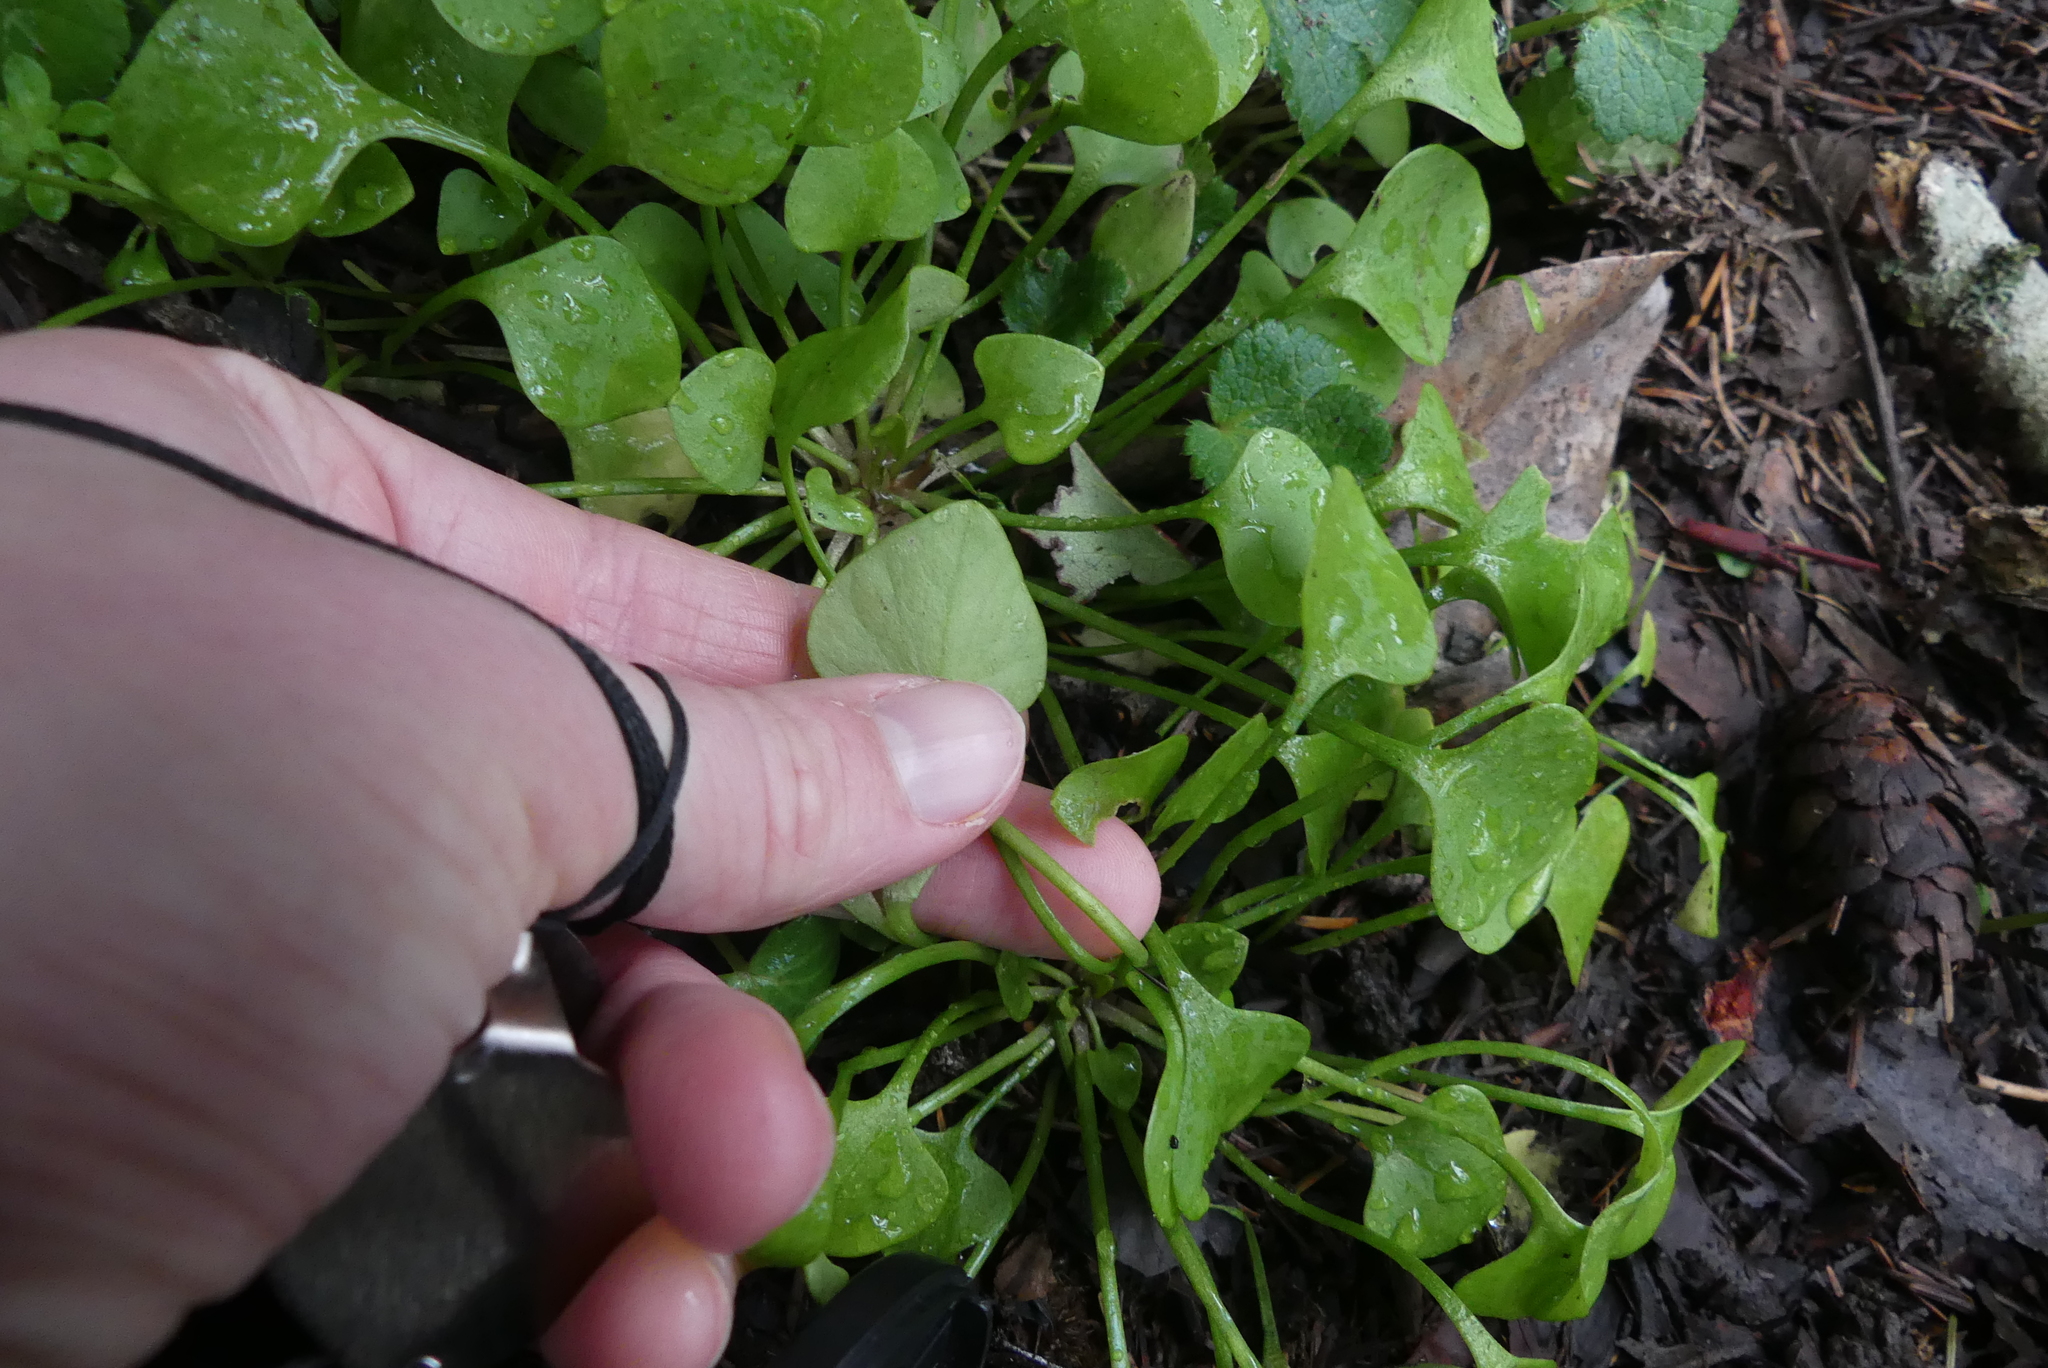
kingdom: Plantae
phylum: Tracheophyta
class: Magnoliopsida
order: Caryophyllales
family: Montiaceae
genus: Claytonia
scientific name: Claytonia perfoliata
